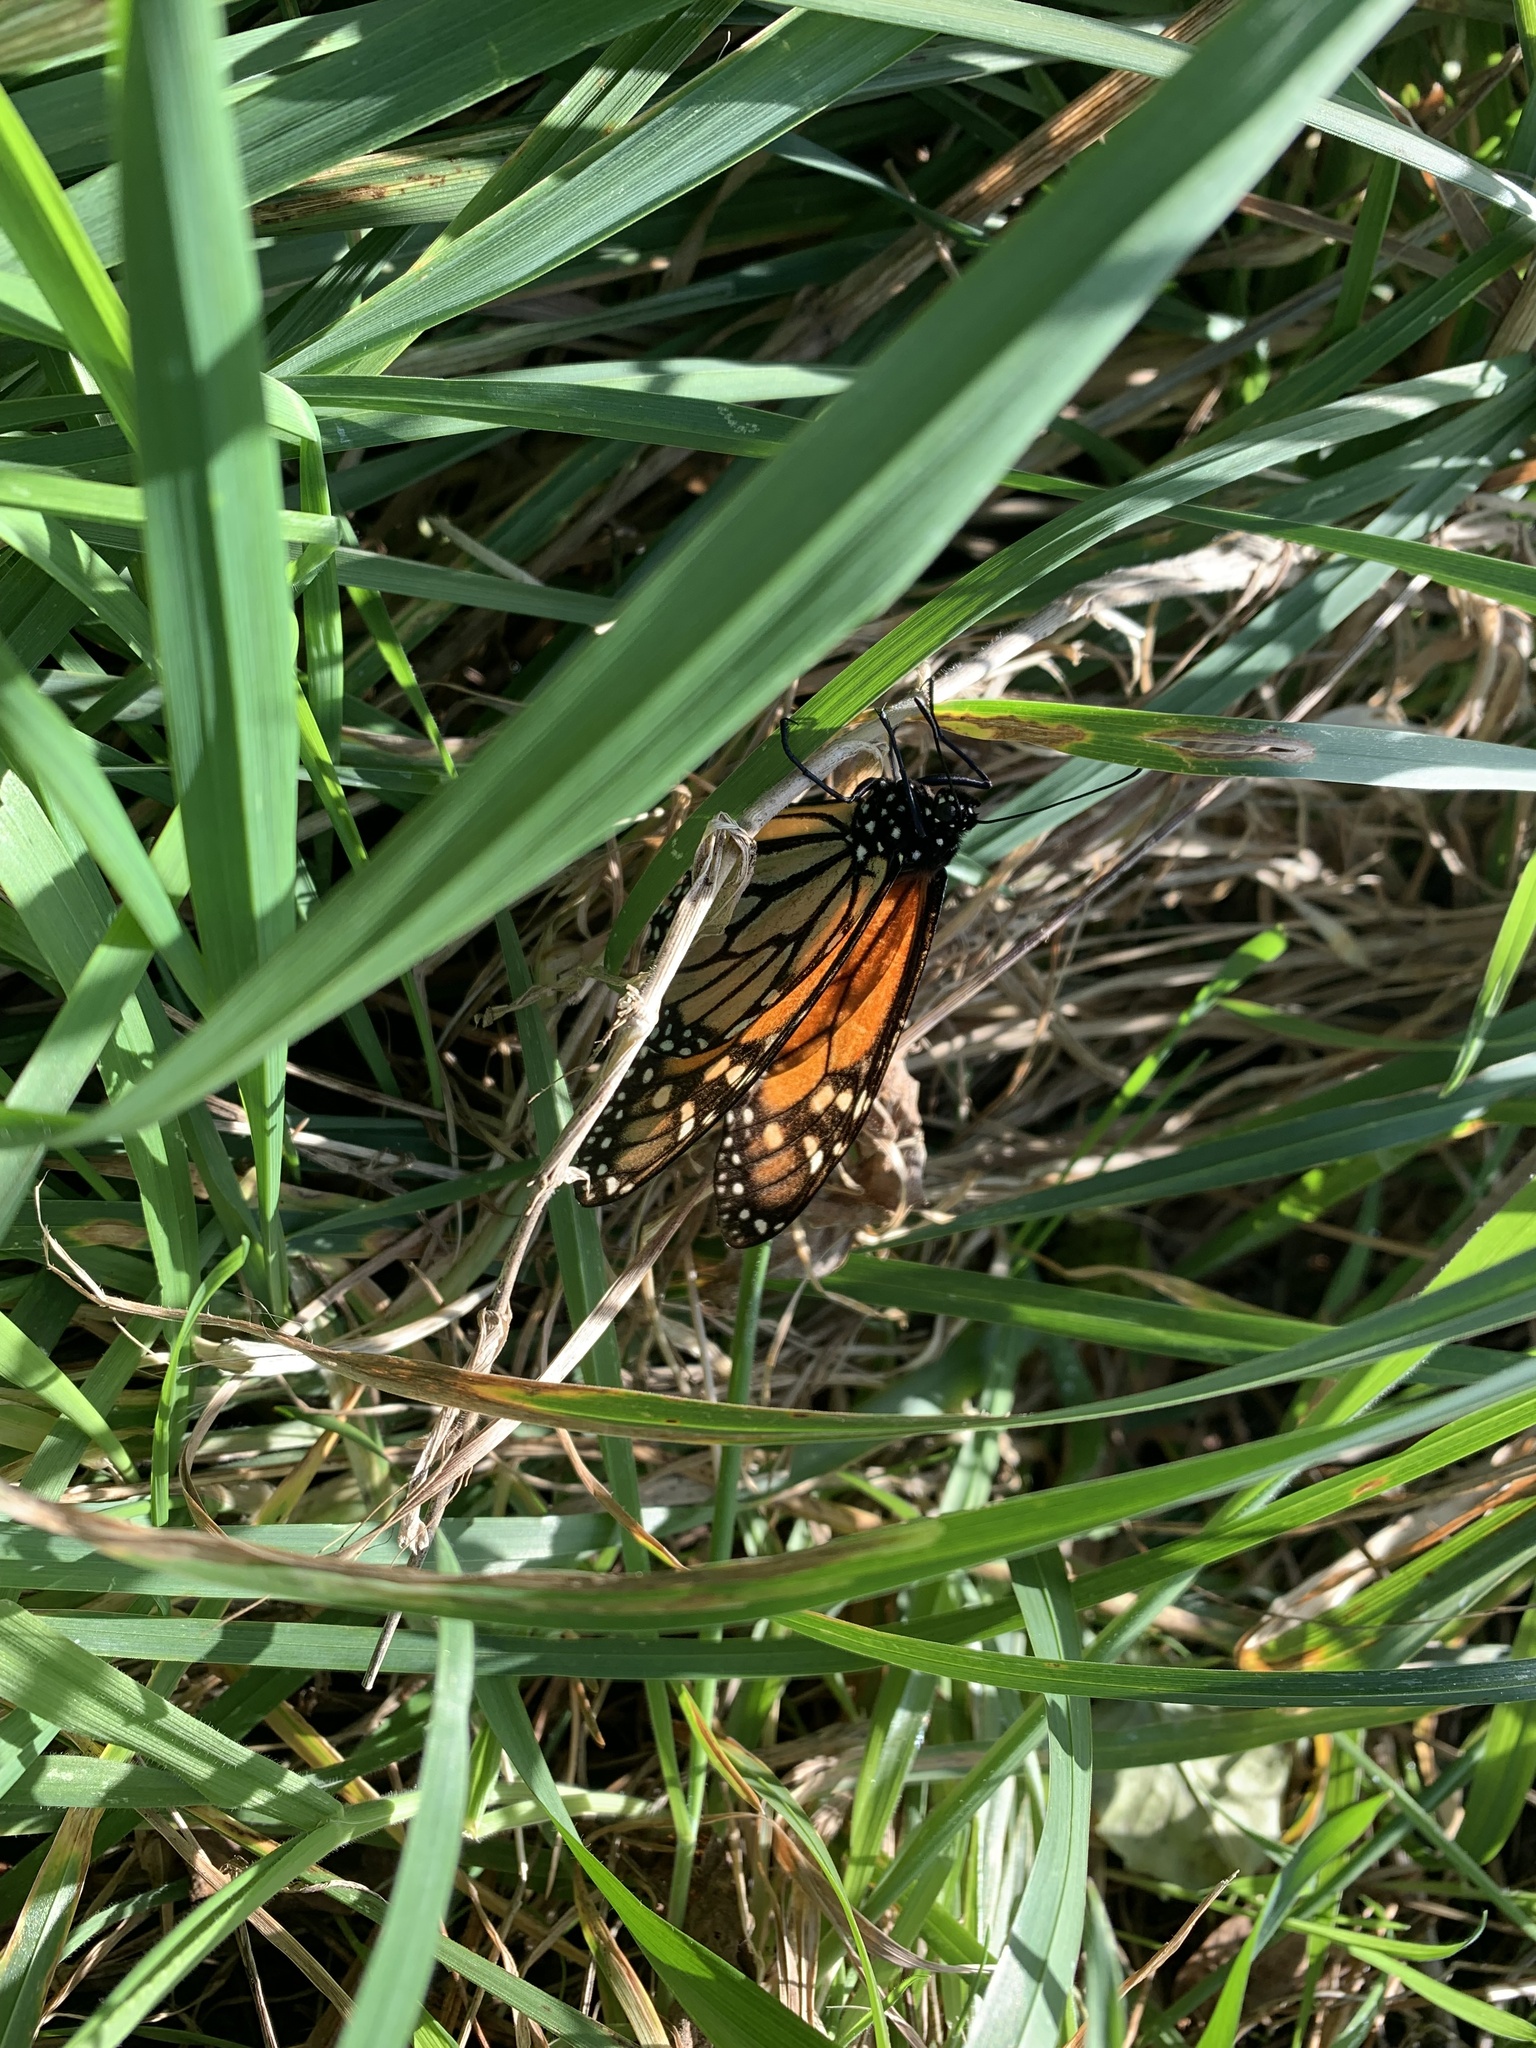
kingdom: Animalia
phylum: Arthropoda
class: Insecta
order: Lepidoptera
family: Nymphalidae
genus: Danaus
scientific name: Danaus plexippus
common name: Monarch
